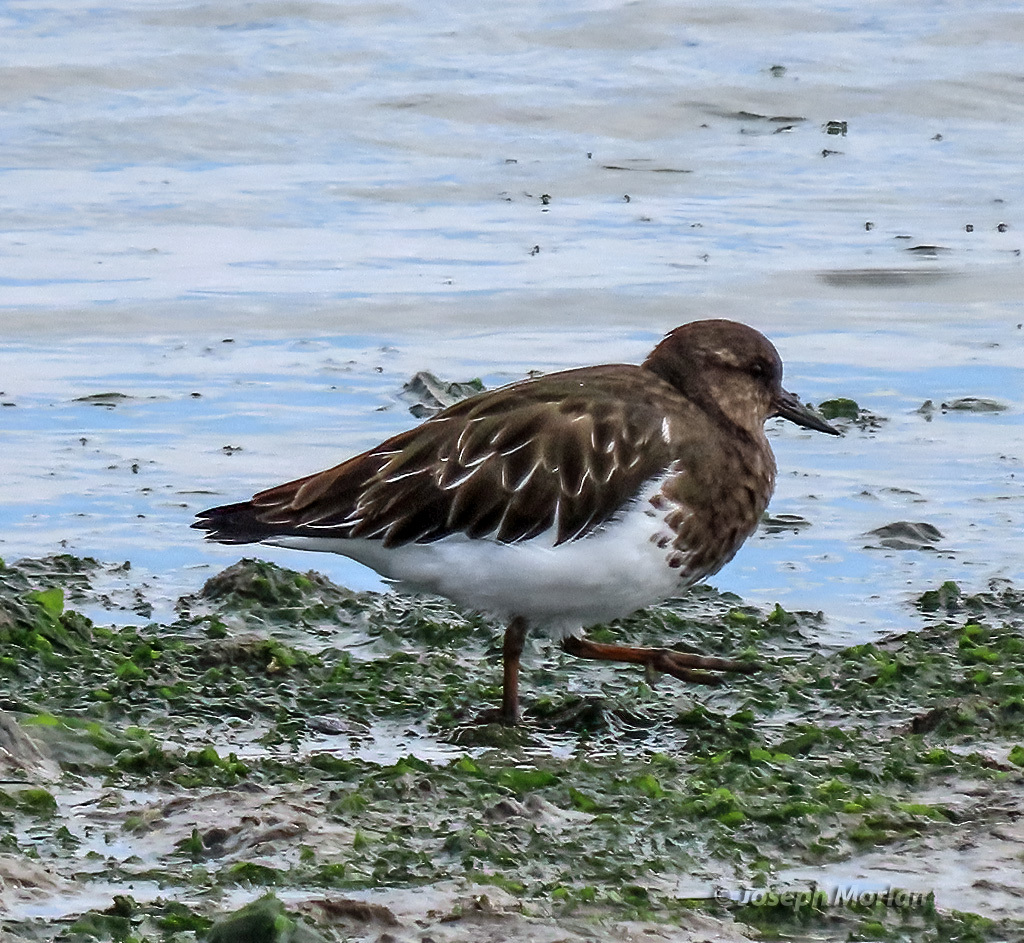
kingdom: Animalia
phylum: Chordata
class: Aves
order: Charadriiformes
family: Scolopacidae
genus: Arenaria
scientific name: Arenaria melanocephala
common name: Black turnstone
